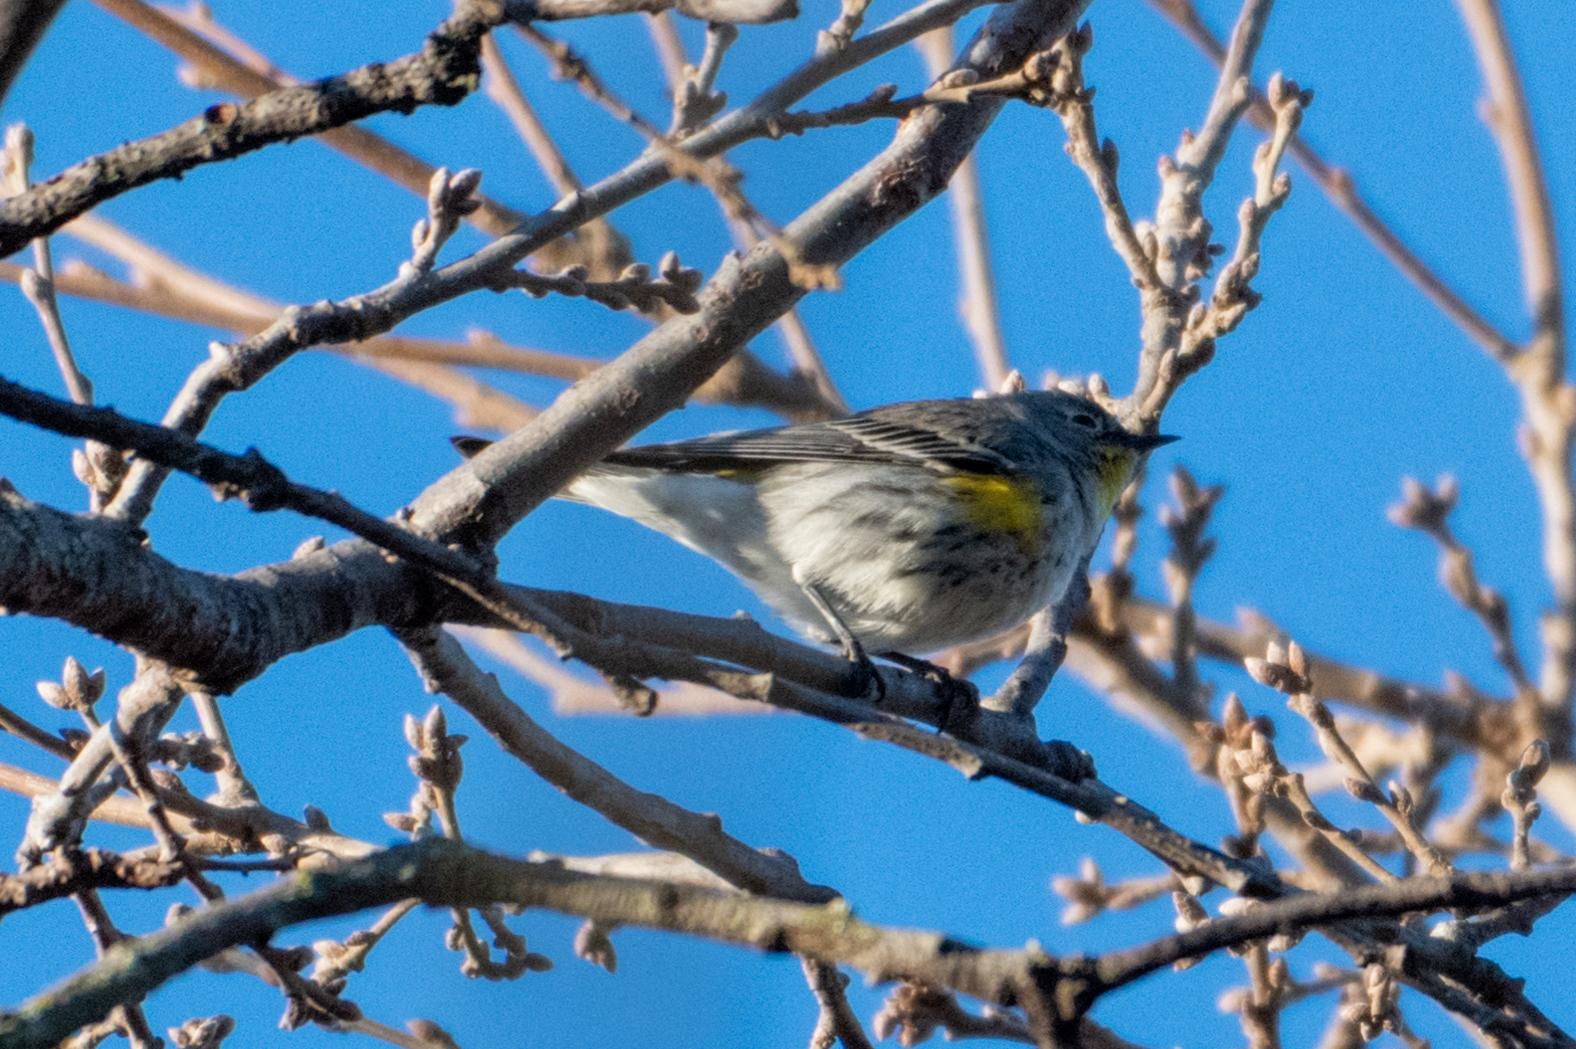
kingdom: Animalia
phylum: Chordata
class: Aves
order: Passeriformes
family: Parulidae
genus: Setophaga
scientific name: Setophaga coronata
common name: Myrtle warbler
